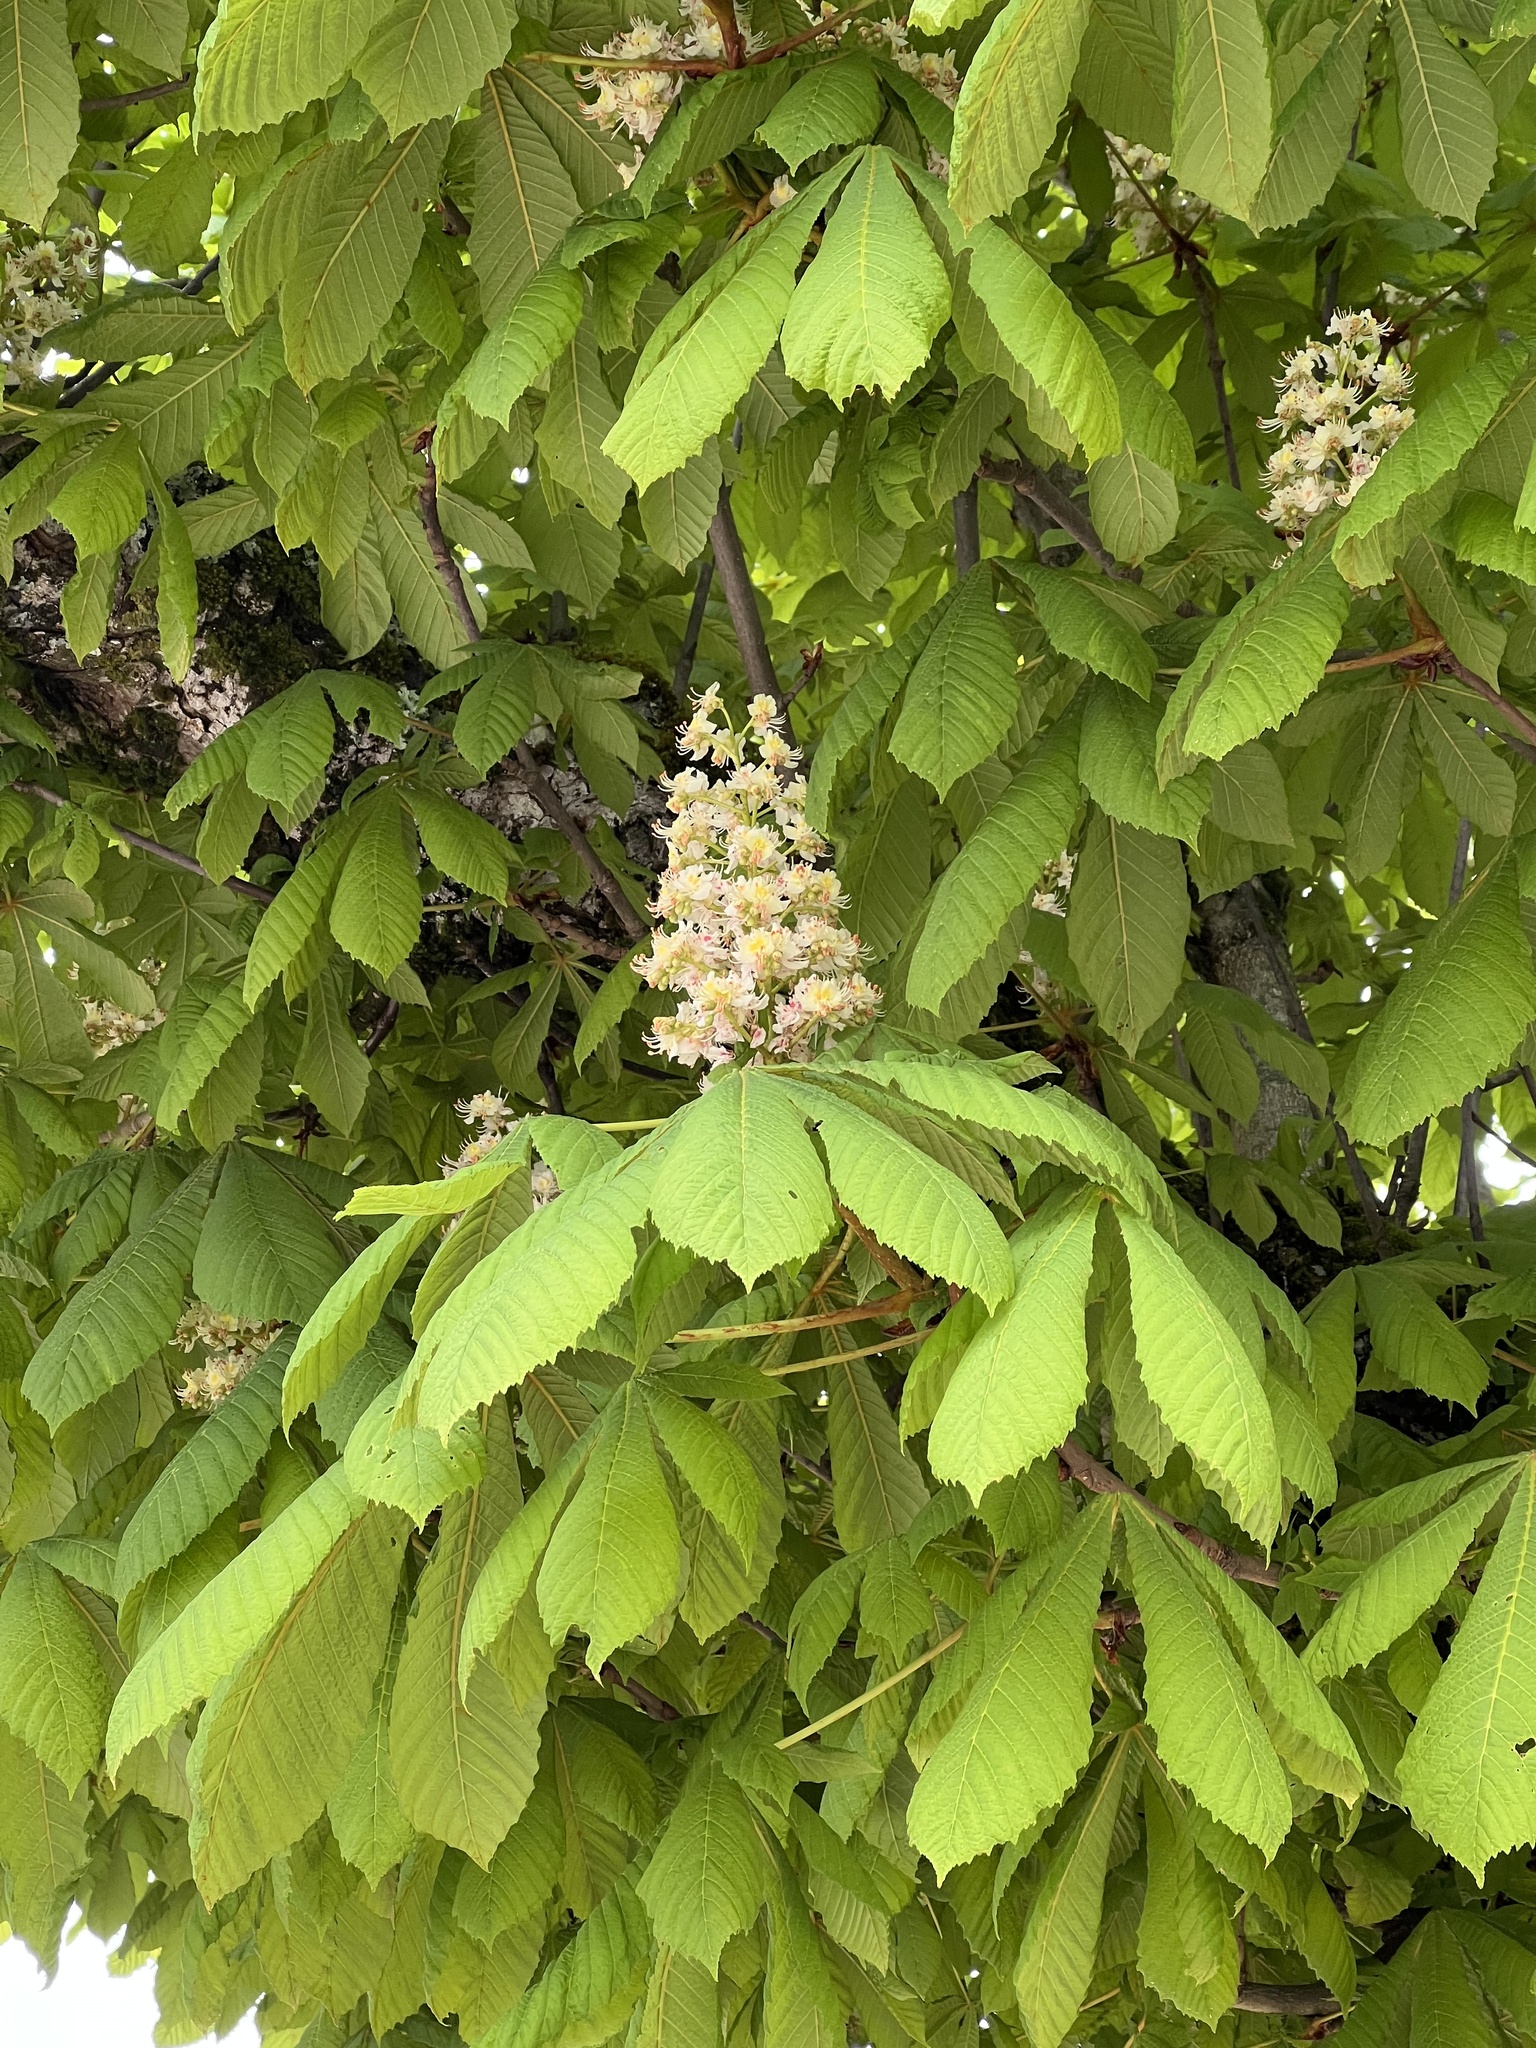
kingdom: Plantae
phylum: Tracheophyta
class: Magnoliopsida
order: Sapindales
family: Sapindaceae
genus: Aesculus
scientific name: Aesculus hippocastanum
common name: Horse-chestnut
